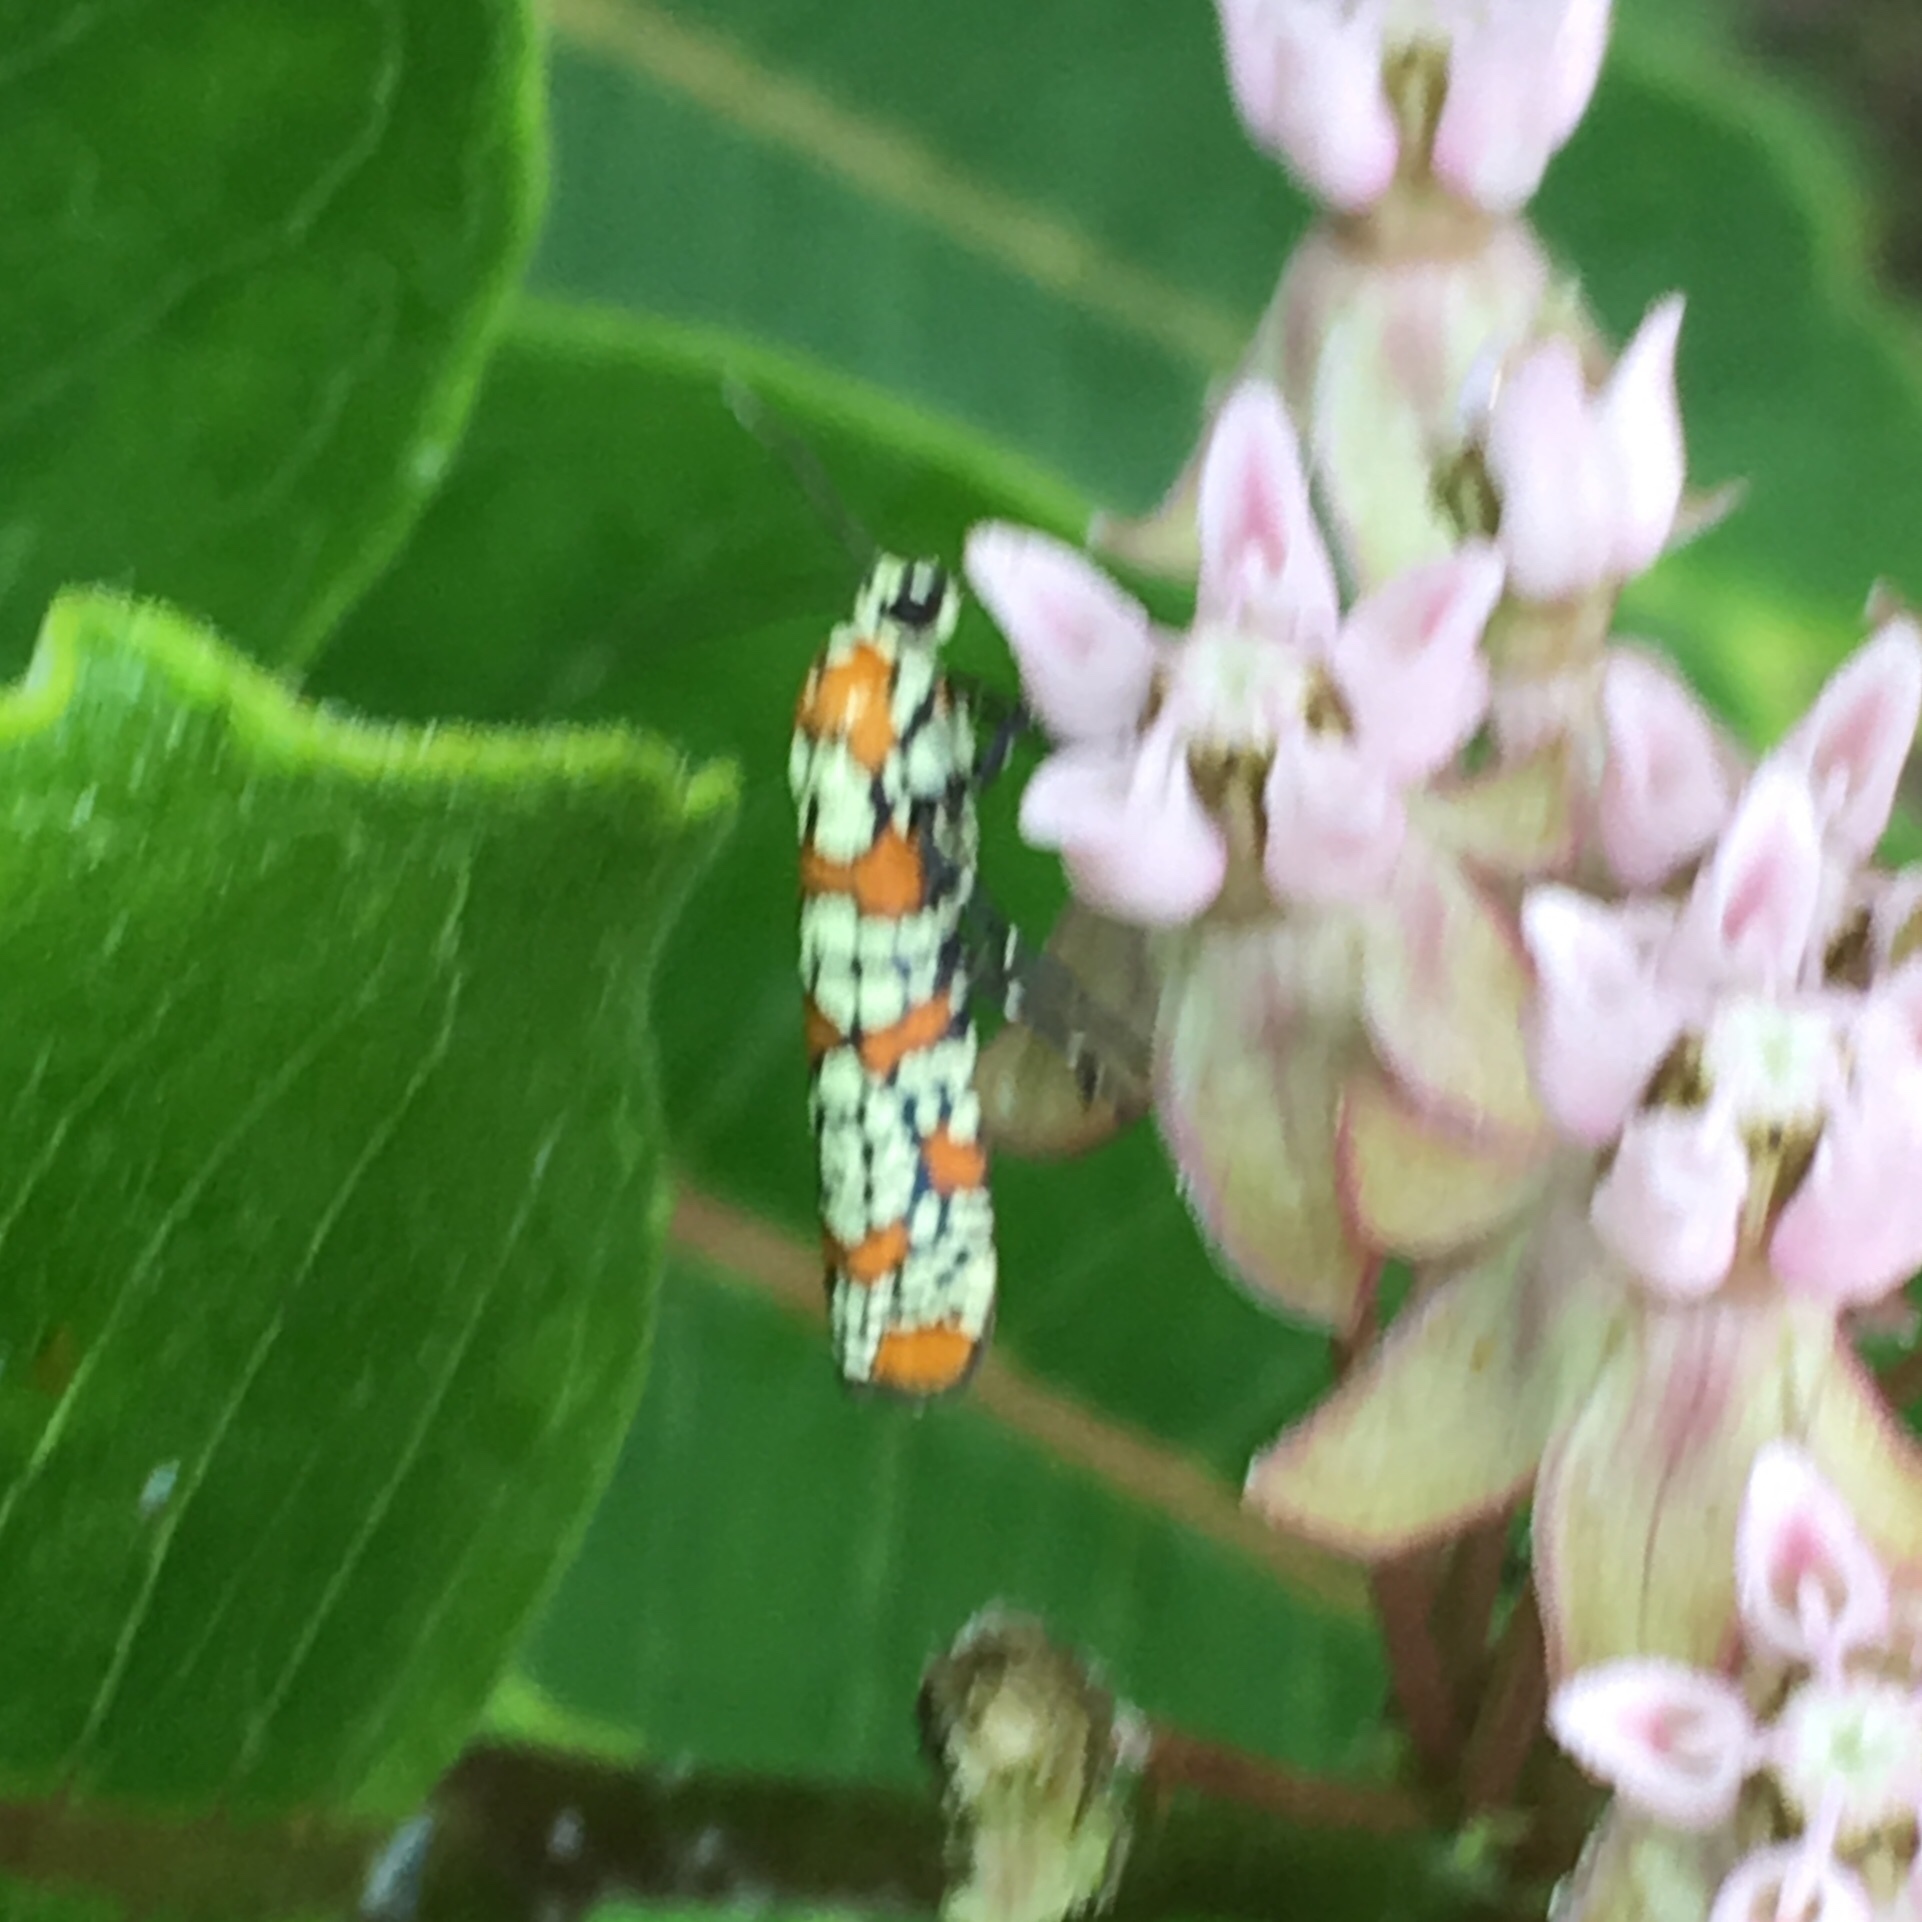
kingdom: Animalia
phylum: Arthropoda
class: Insecta
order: Lepidoptera
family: Attevidae
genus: Atteva
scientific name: Atteva punctella
